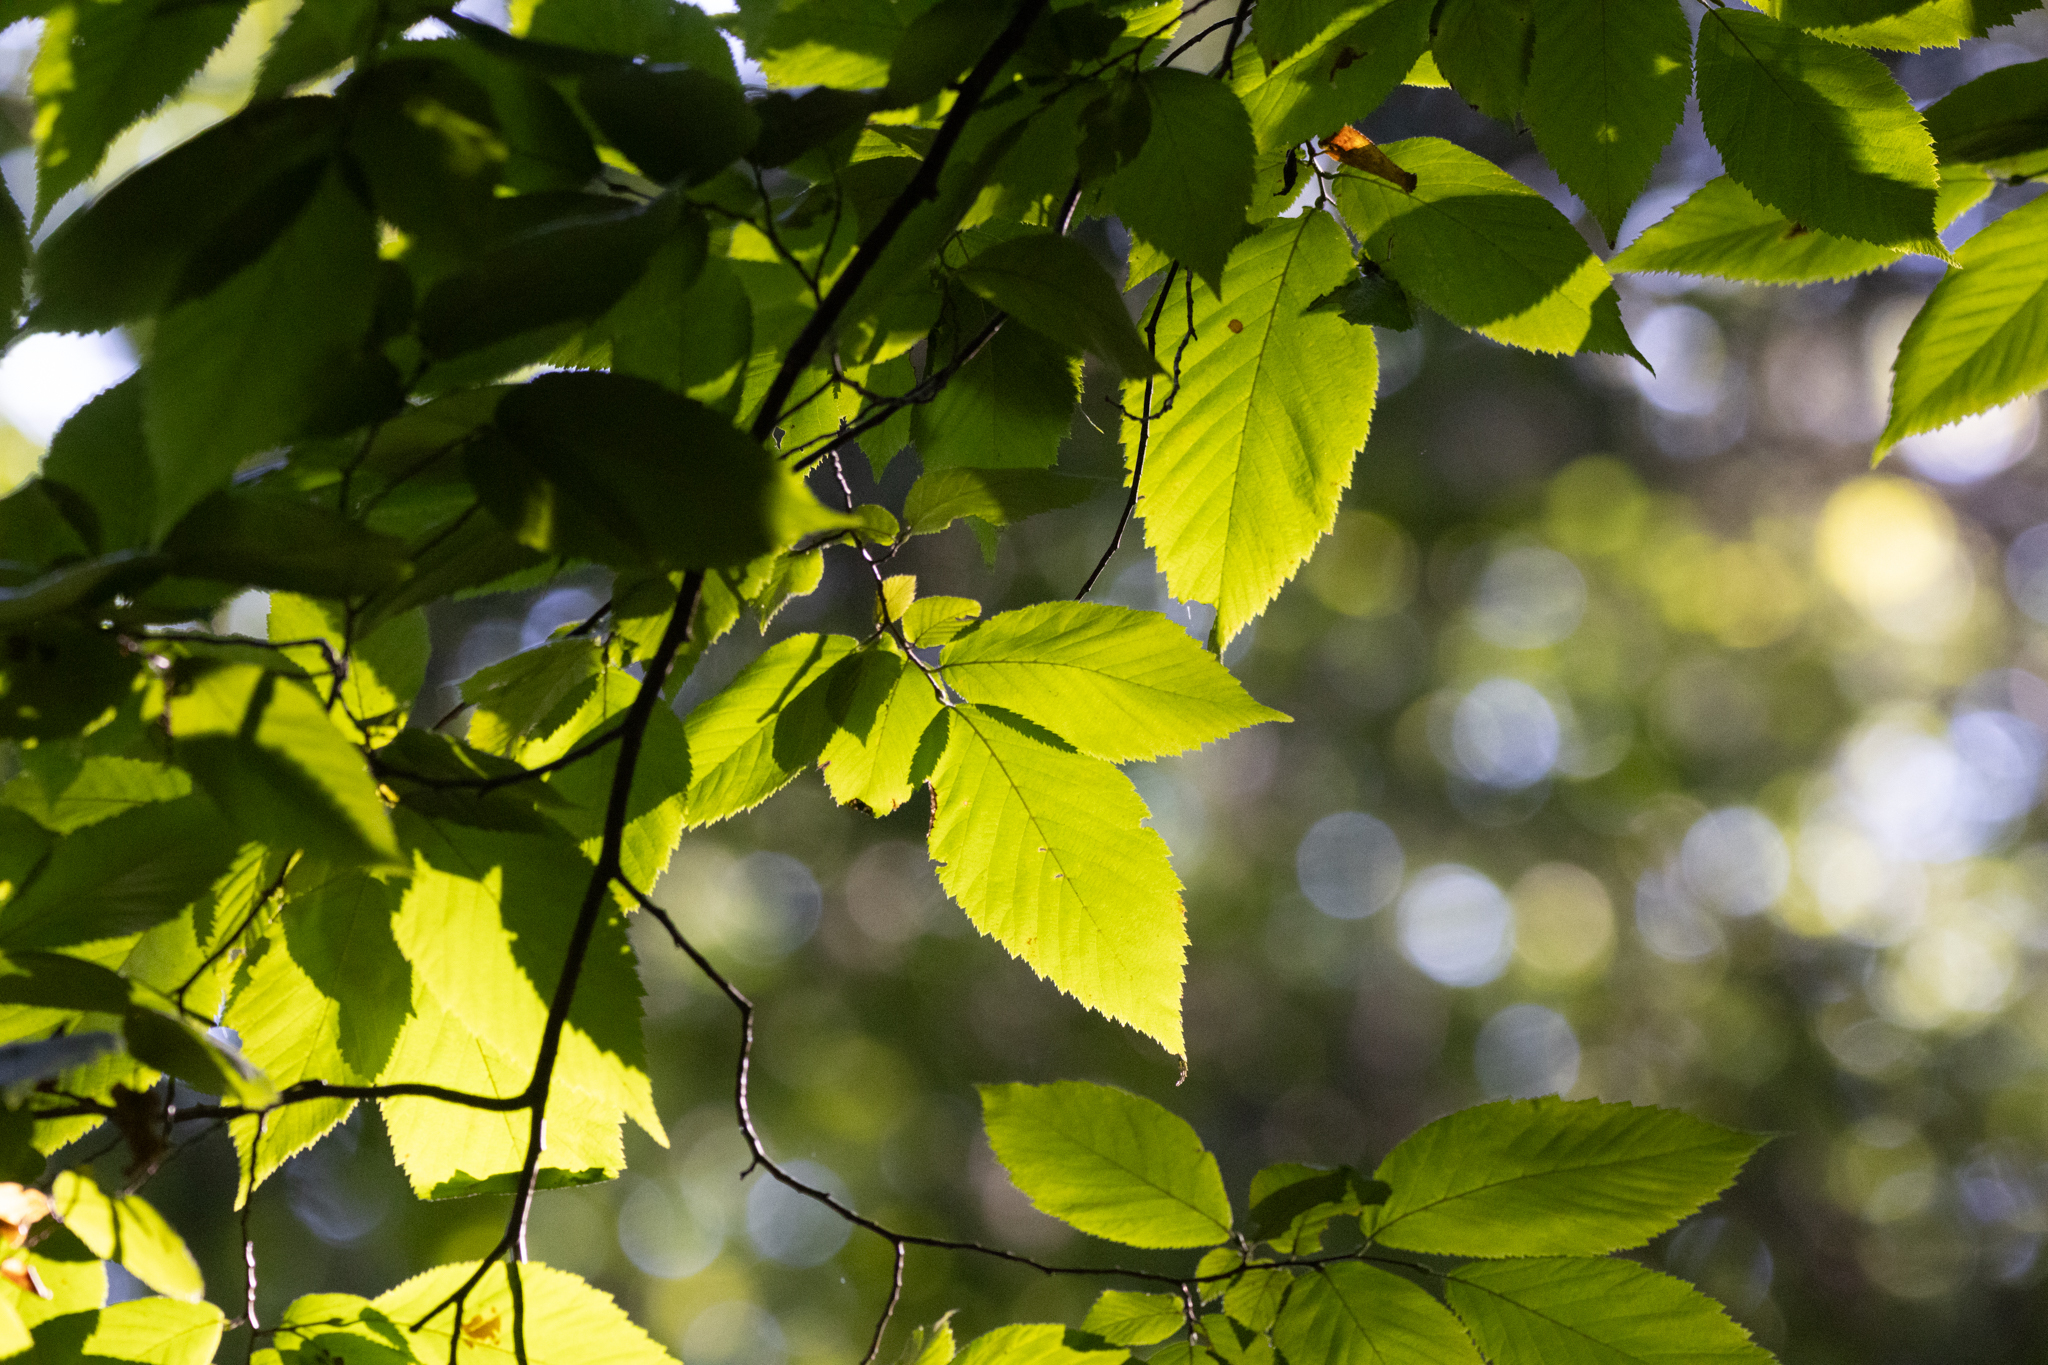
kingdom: Plantae
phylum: Tracheophyta
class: Magnoliopsida
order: Fagales
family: Betulaceae
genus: Ostrya
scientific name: Ostrya virginiana
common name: Ironwood
